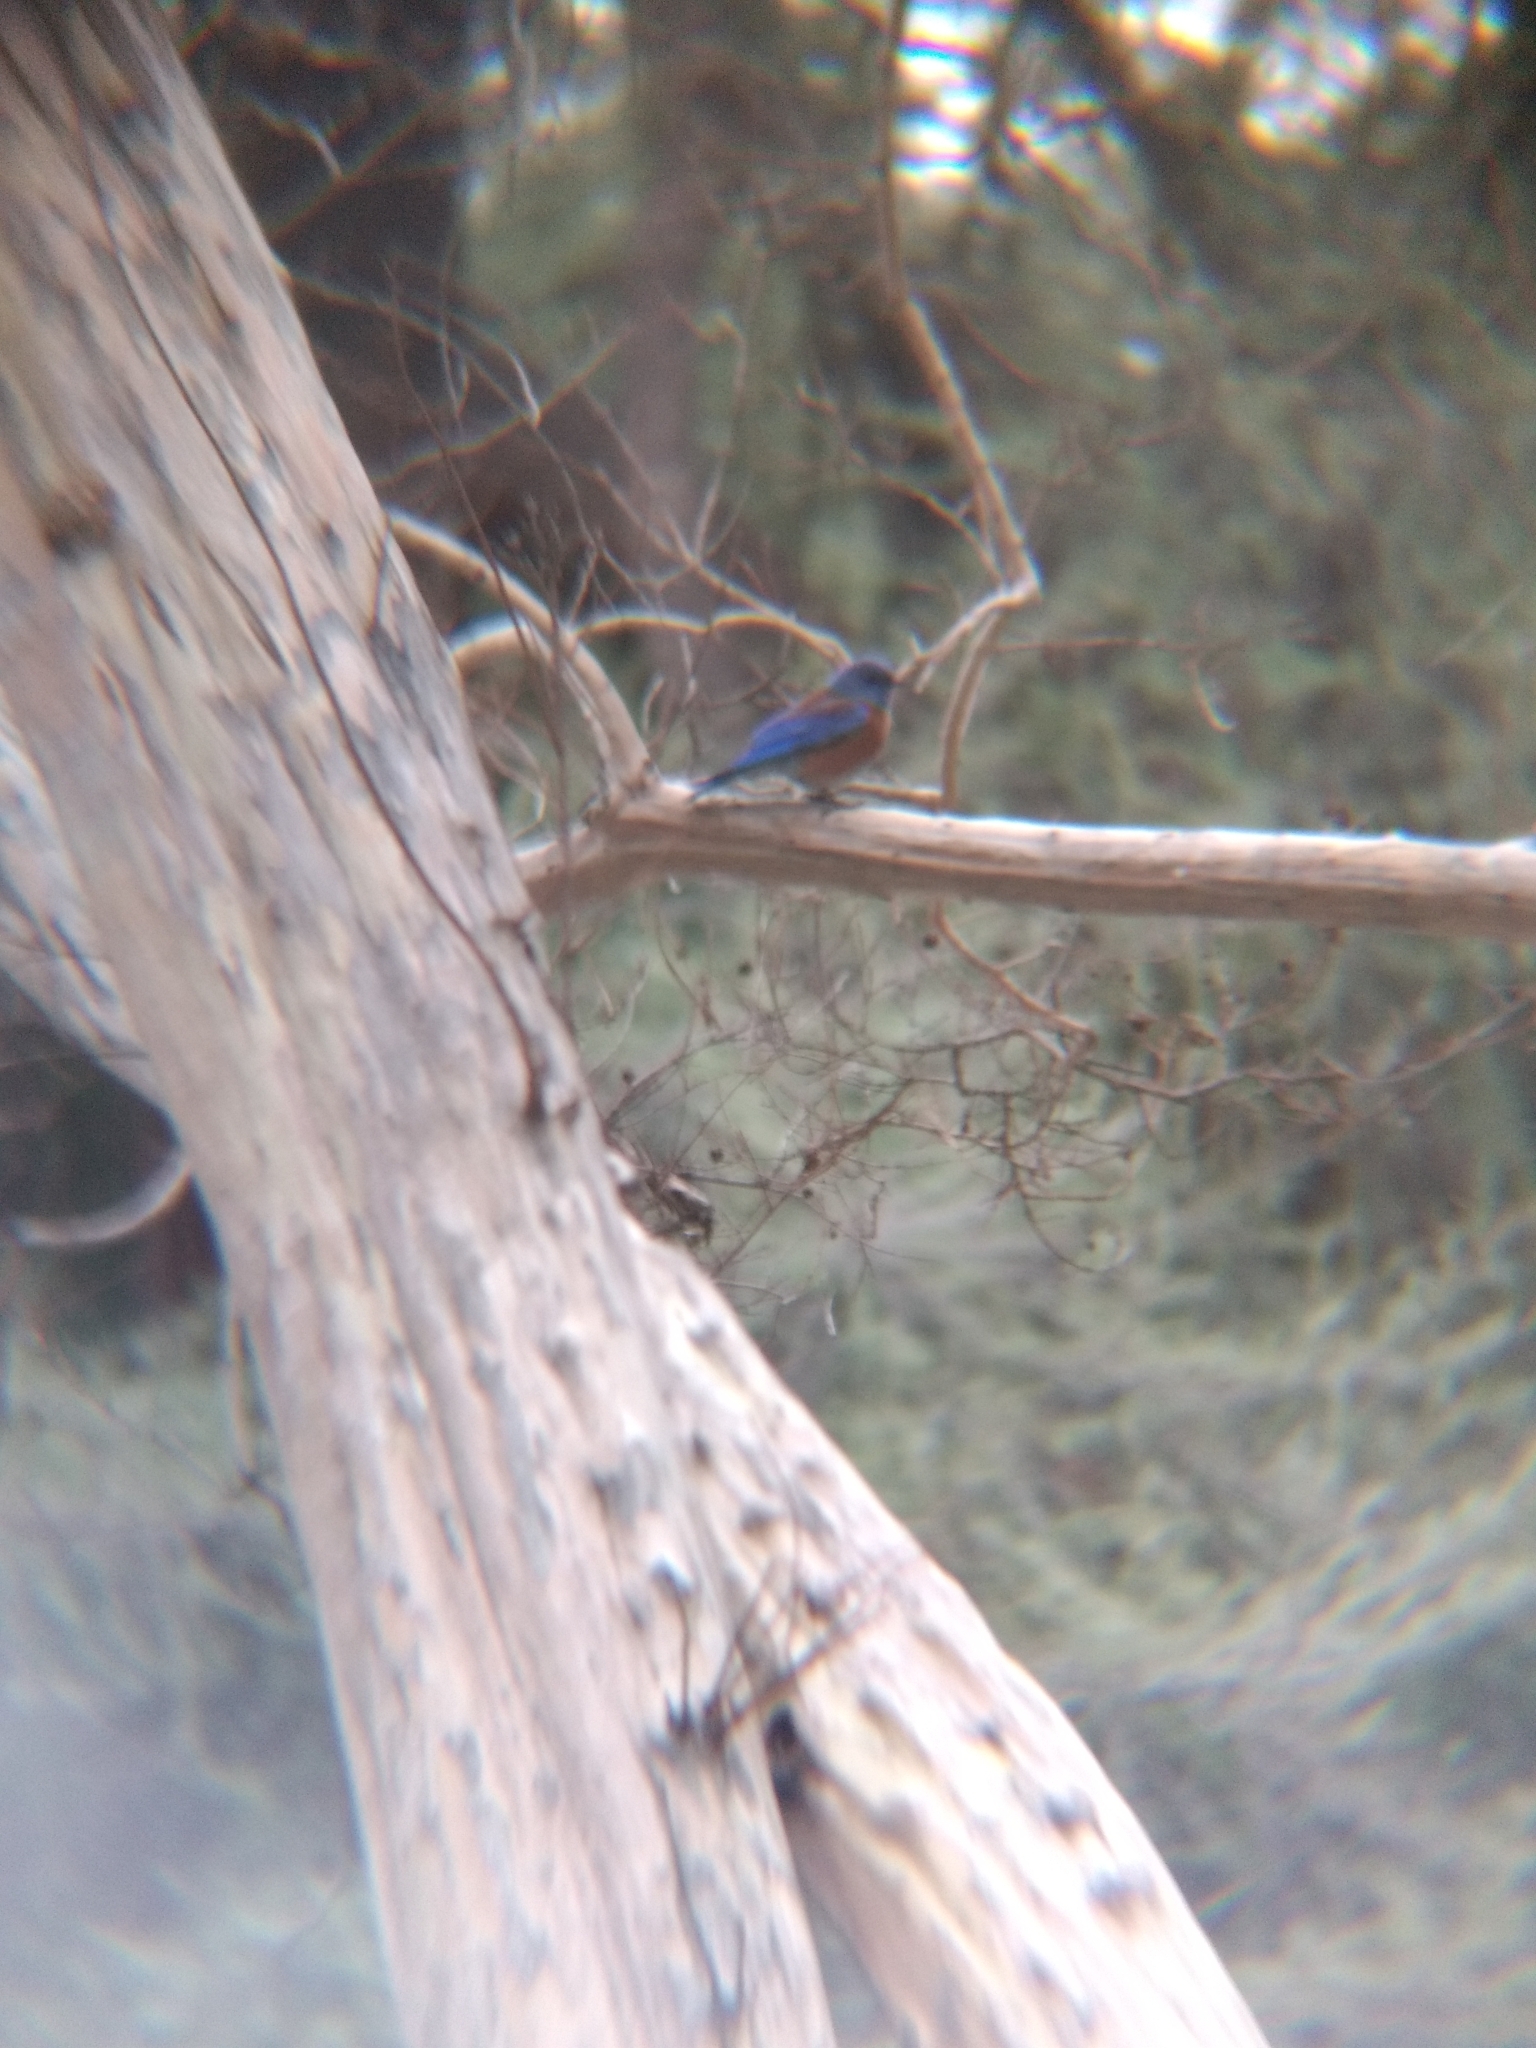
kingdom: Animalia
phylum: Chordata
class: Aves
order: Passeriformes
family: Turdidae
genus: Sialia
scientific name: Sialia mexicana
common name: Western bluebird
